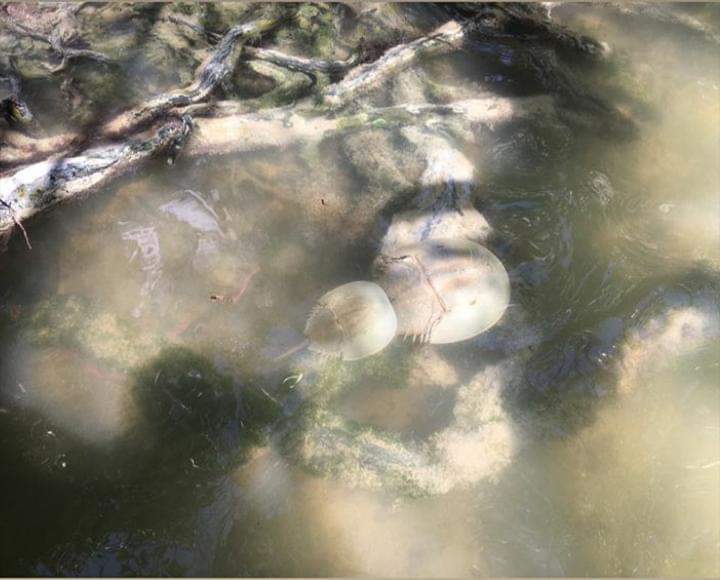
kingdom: Animalia
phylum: Arthropoda
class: Merostomata
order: Xiphosurida
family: Limulidae
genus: Limulus
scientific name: Limulus polyphemus
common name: Horseshoe crab
